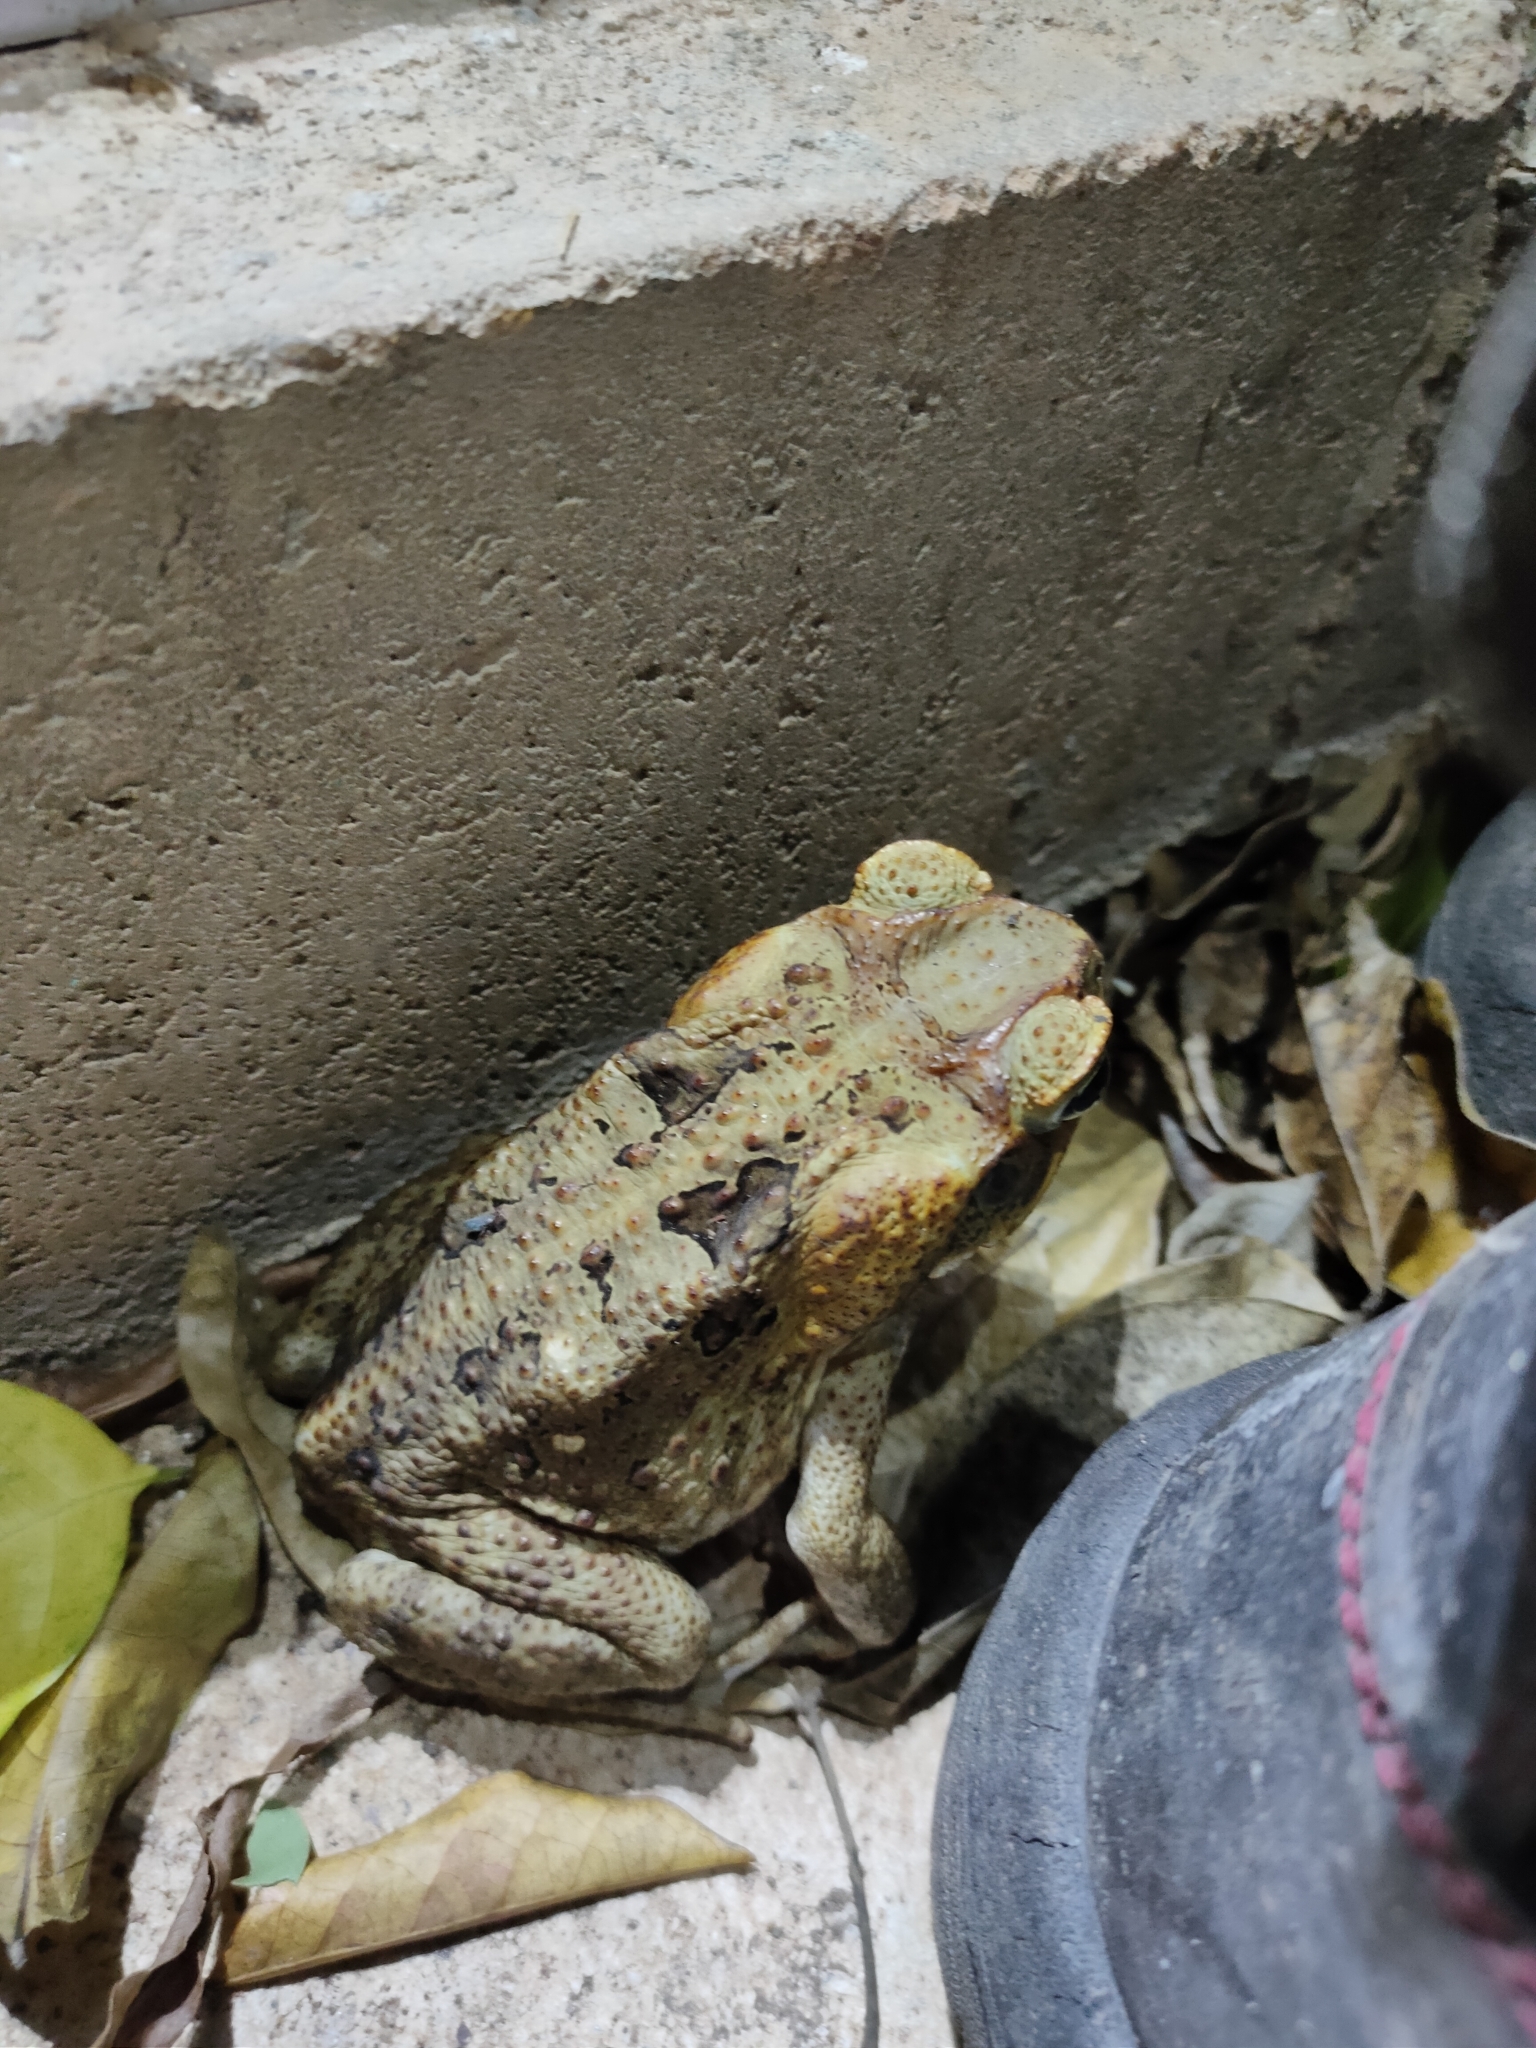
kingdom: Animalia
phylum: Chordata
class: Amphibia
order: Anura
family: Bufonidae
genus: Rhinella
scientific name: Rhinella marina
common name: Cane toad
